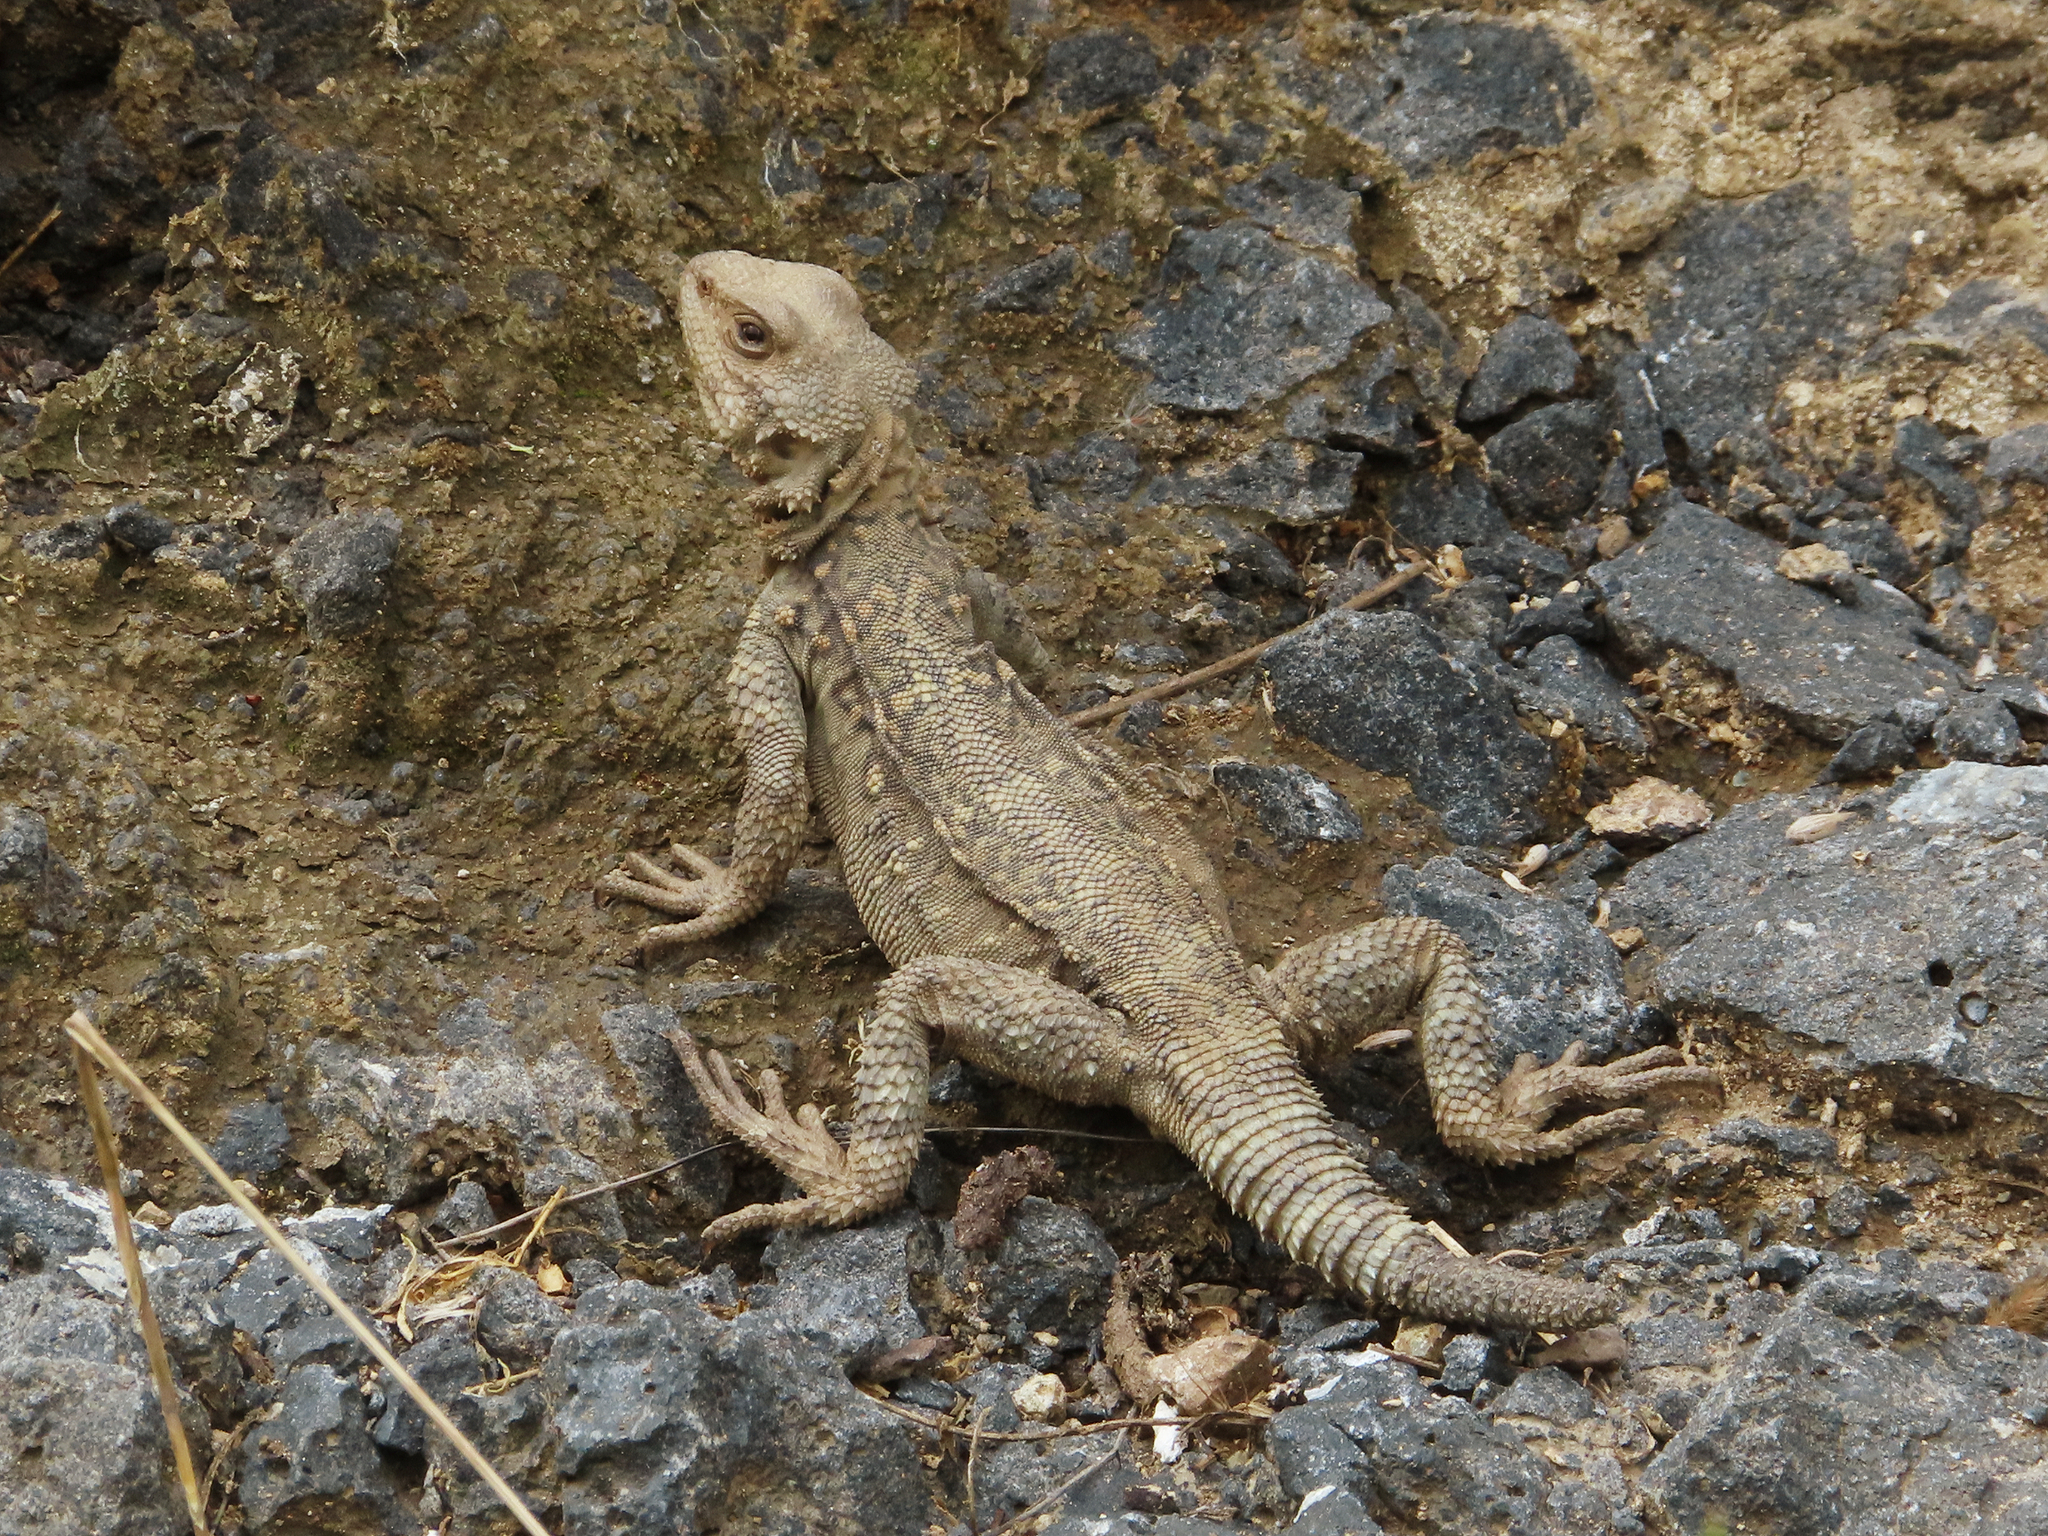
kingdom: Animalia
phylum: Chordata
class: Squamata
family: Agamidae
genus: Paralaudakia
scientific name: Paralaudakia caucasia
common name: Caucasian agama
